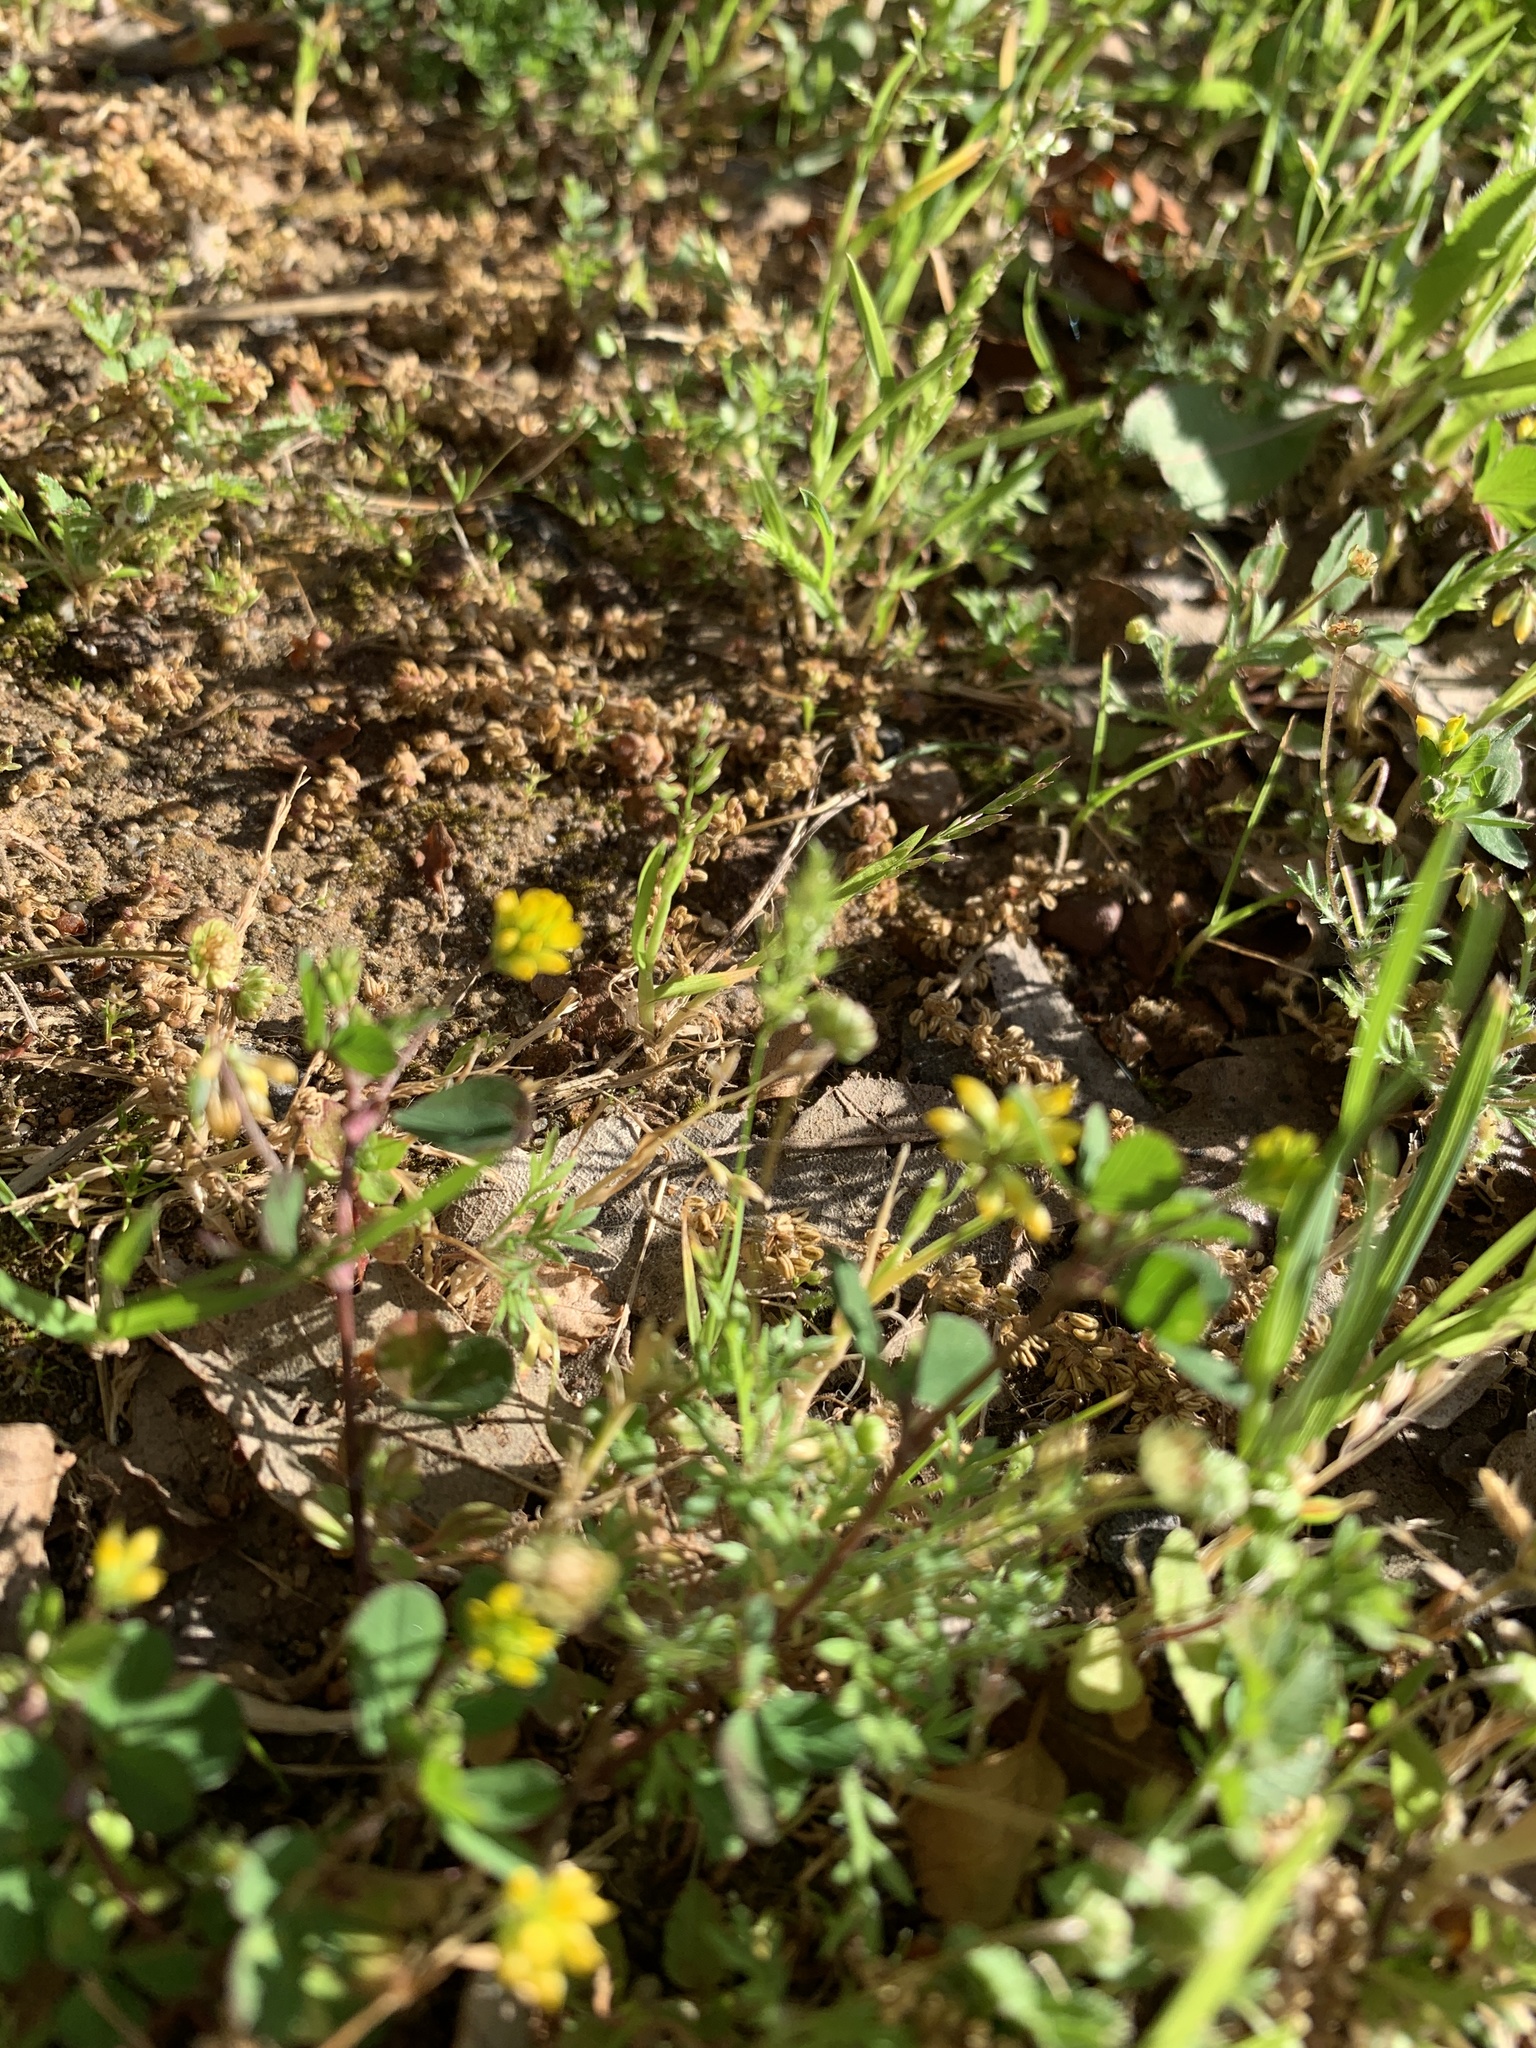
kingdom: Plantae
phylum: Tracheophyta
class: Magnoliopsida
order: Fabales
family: Fabaceae
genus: Trifolium
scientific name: Trifolium dubium
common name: Suckling clover
